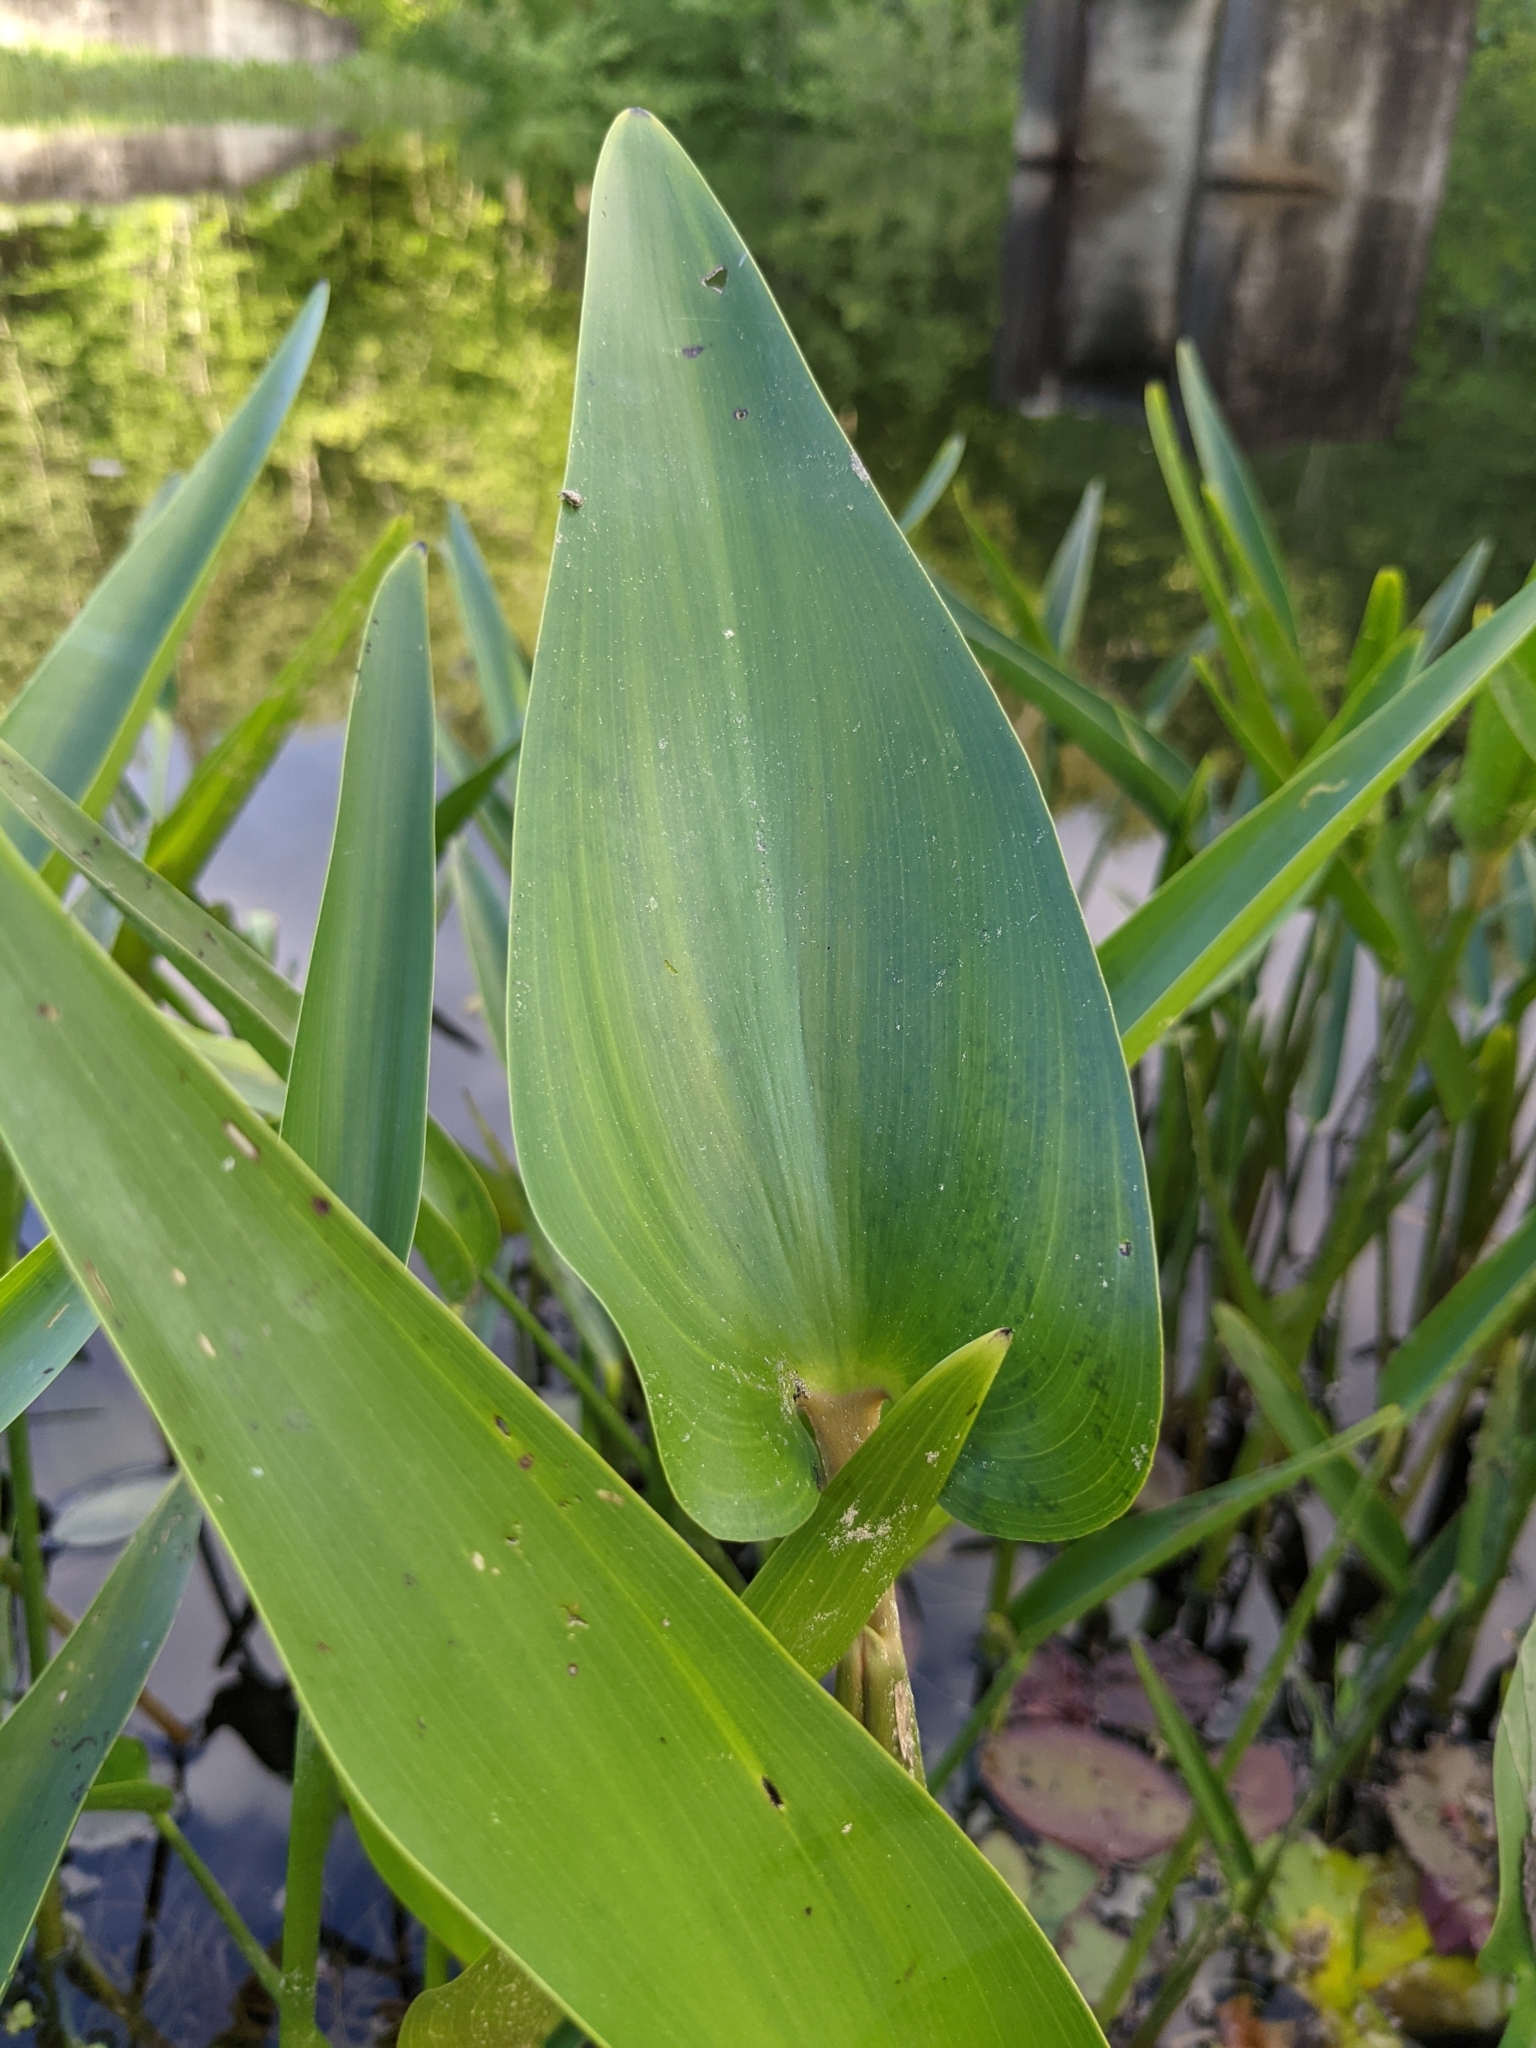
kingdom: Plantae
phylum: Tracheophyta
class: Liliopsida
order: Commelinales
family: Pontederiaceae
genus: Pontederia
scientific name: Pontederia cordata
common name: Pickerelweed
